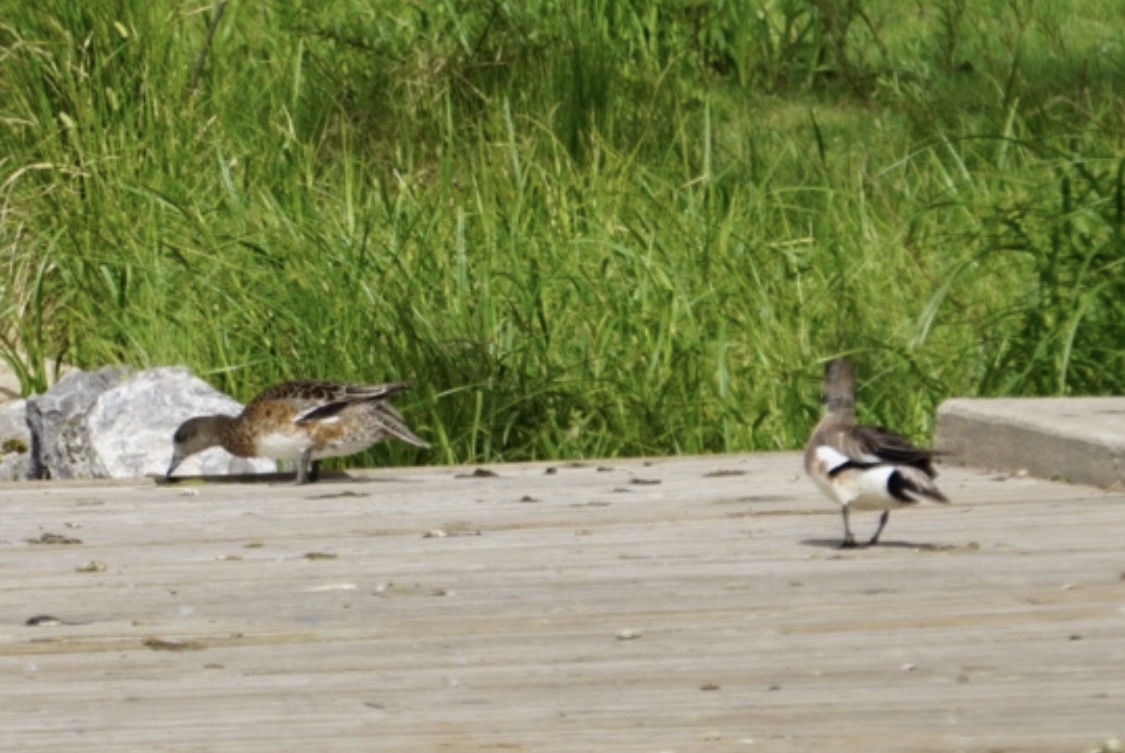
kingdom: Animalia
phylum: Chordata
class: Aves
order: Anseriformes
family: Anatidae
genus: Mareca
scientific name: Mareca strepera
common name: Gadwall
